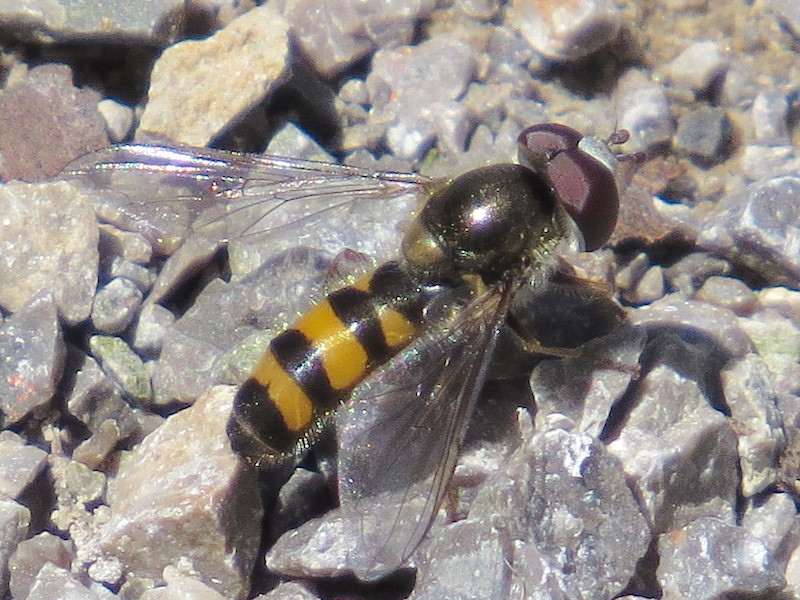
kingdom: Animalia
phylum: Arthropoda
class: Insecta
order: Diptera
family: Syrphidae
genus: Fagisyrphus
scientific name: Fagisyrphus cincta
